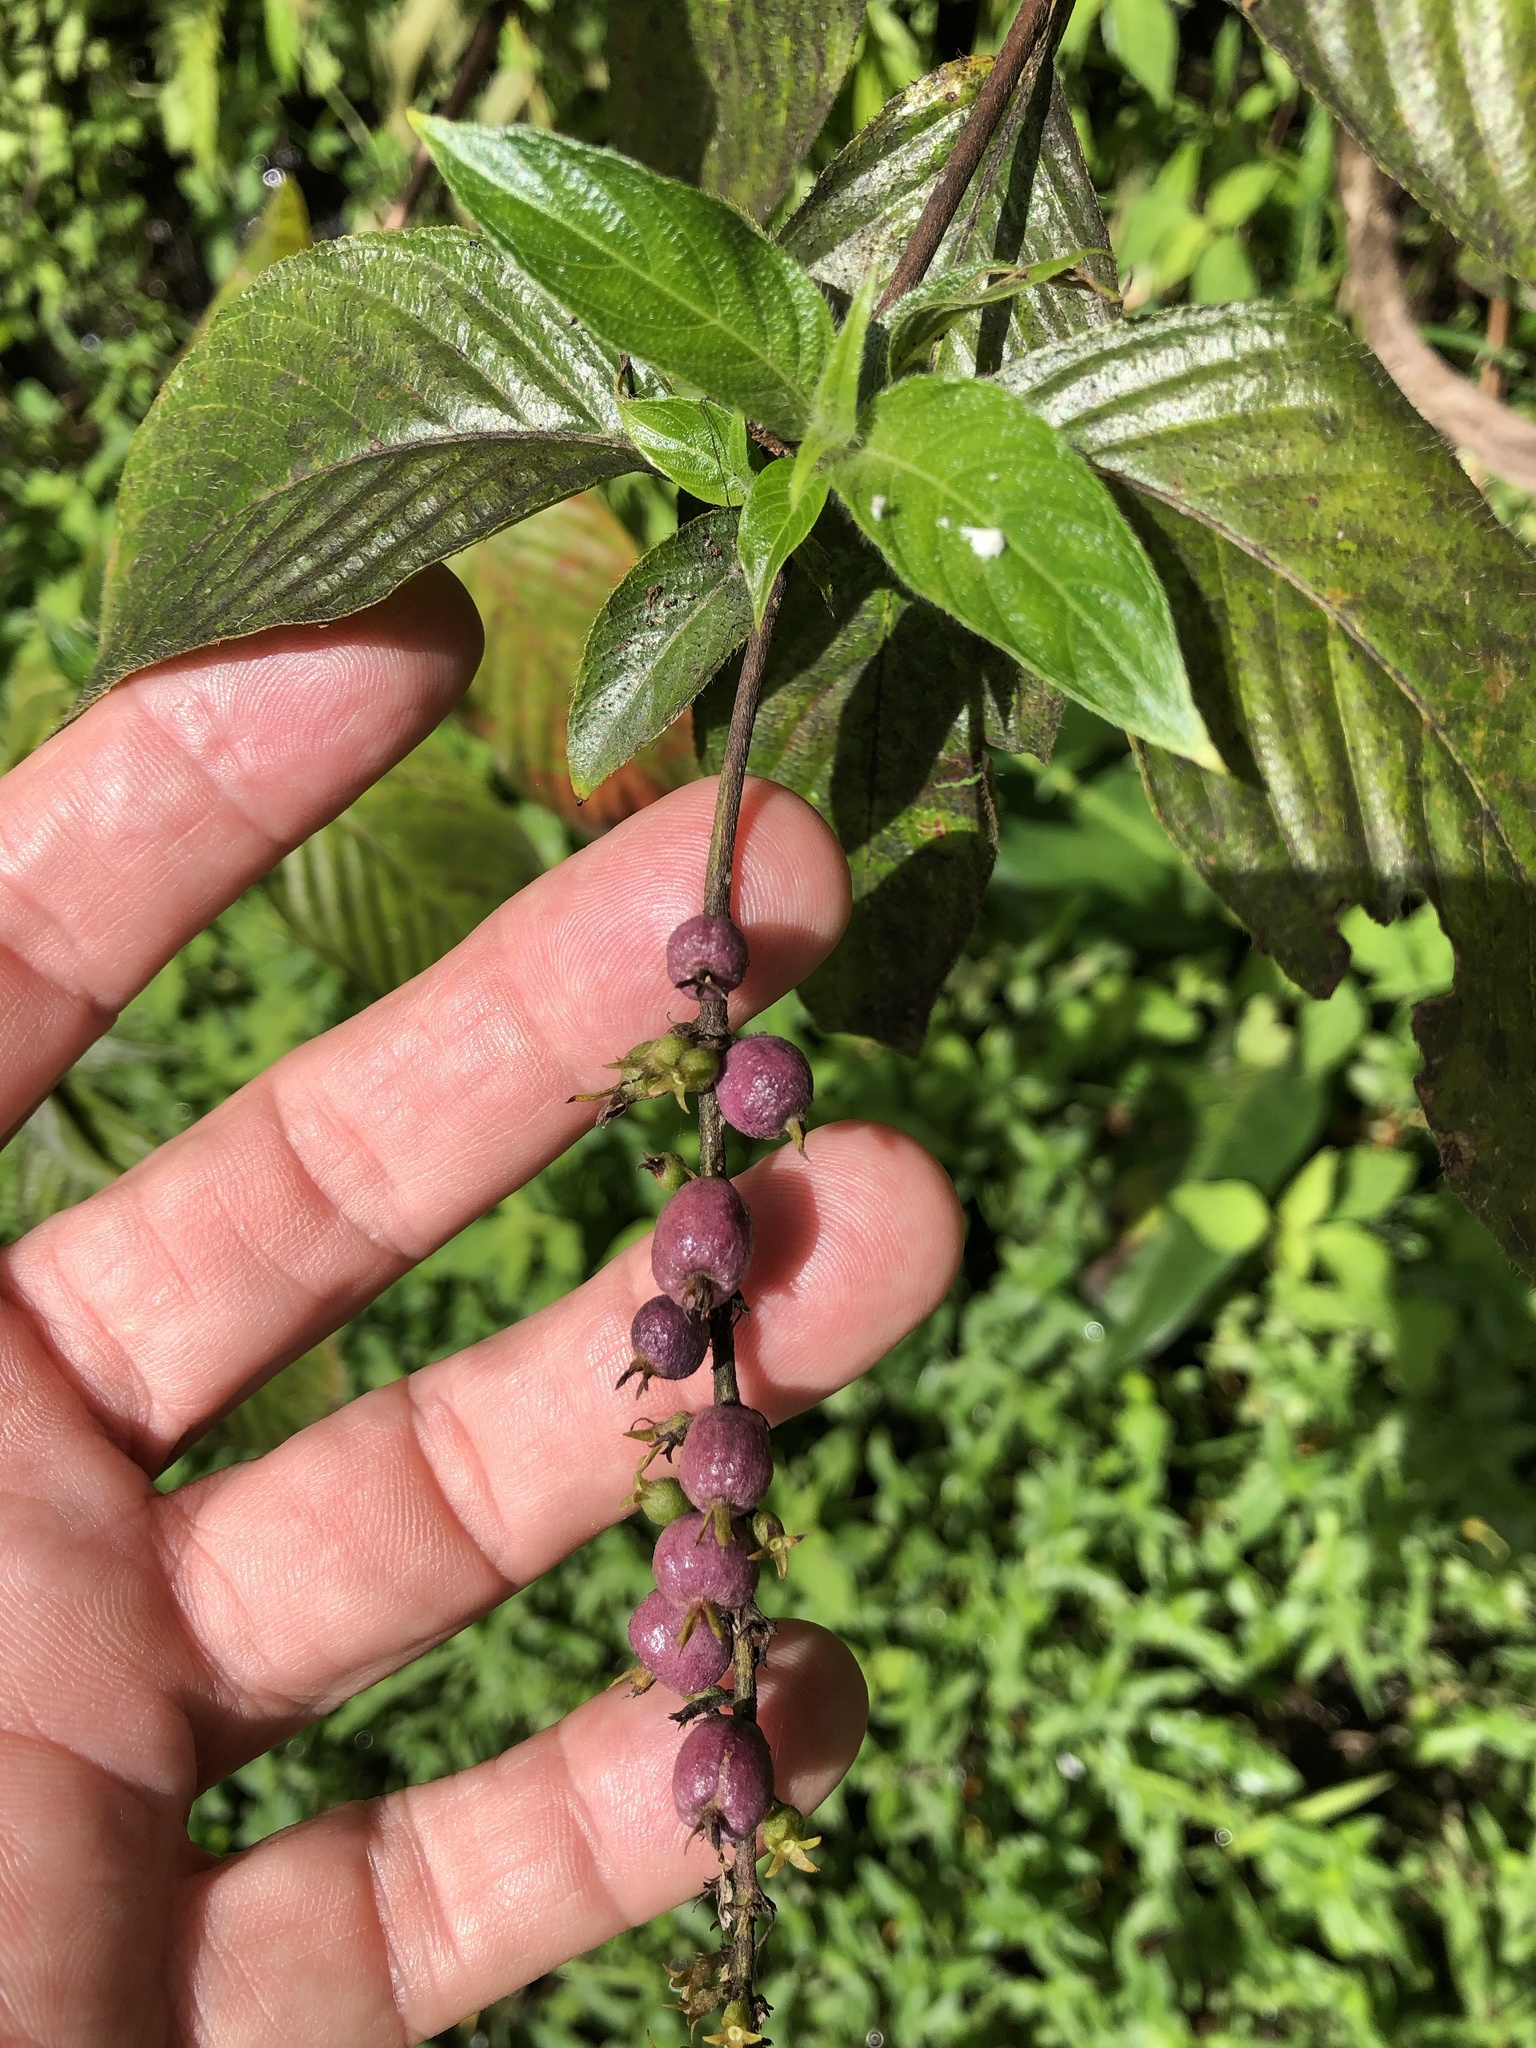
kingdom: Plantae
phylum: Tracheophyta
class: Magnoliopsida
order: Gentianales
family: Rubiaceae
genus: Gonzalagunia
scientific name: Gonzalagunia hirsuta
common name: Mata de mariposa
